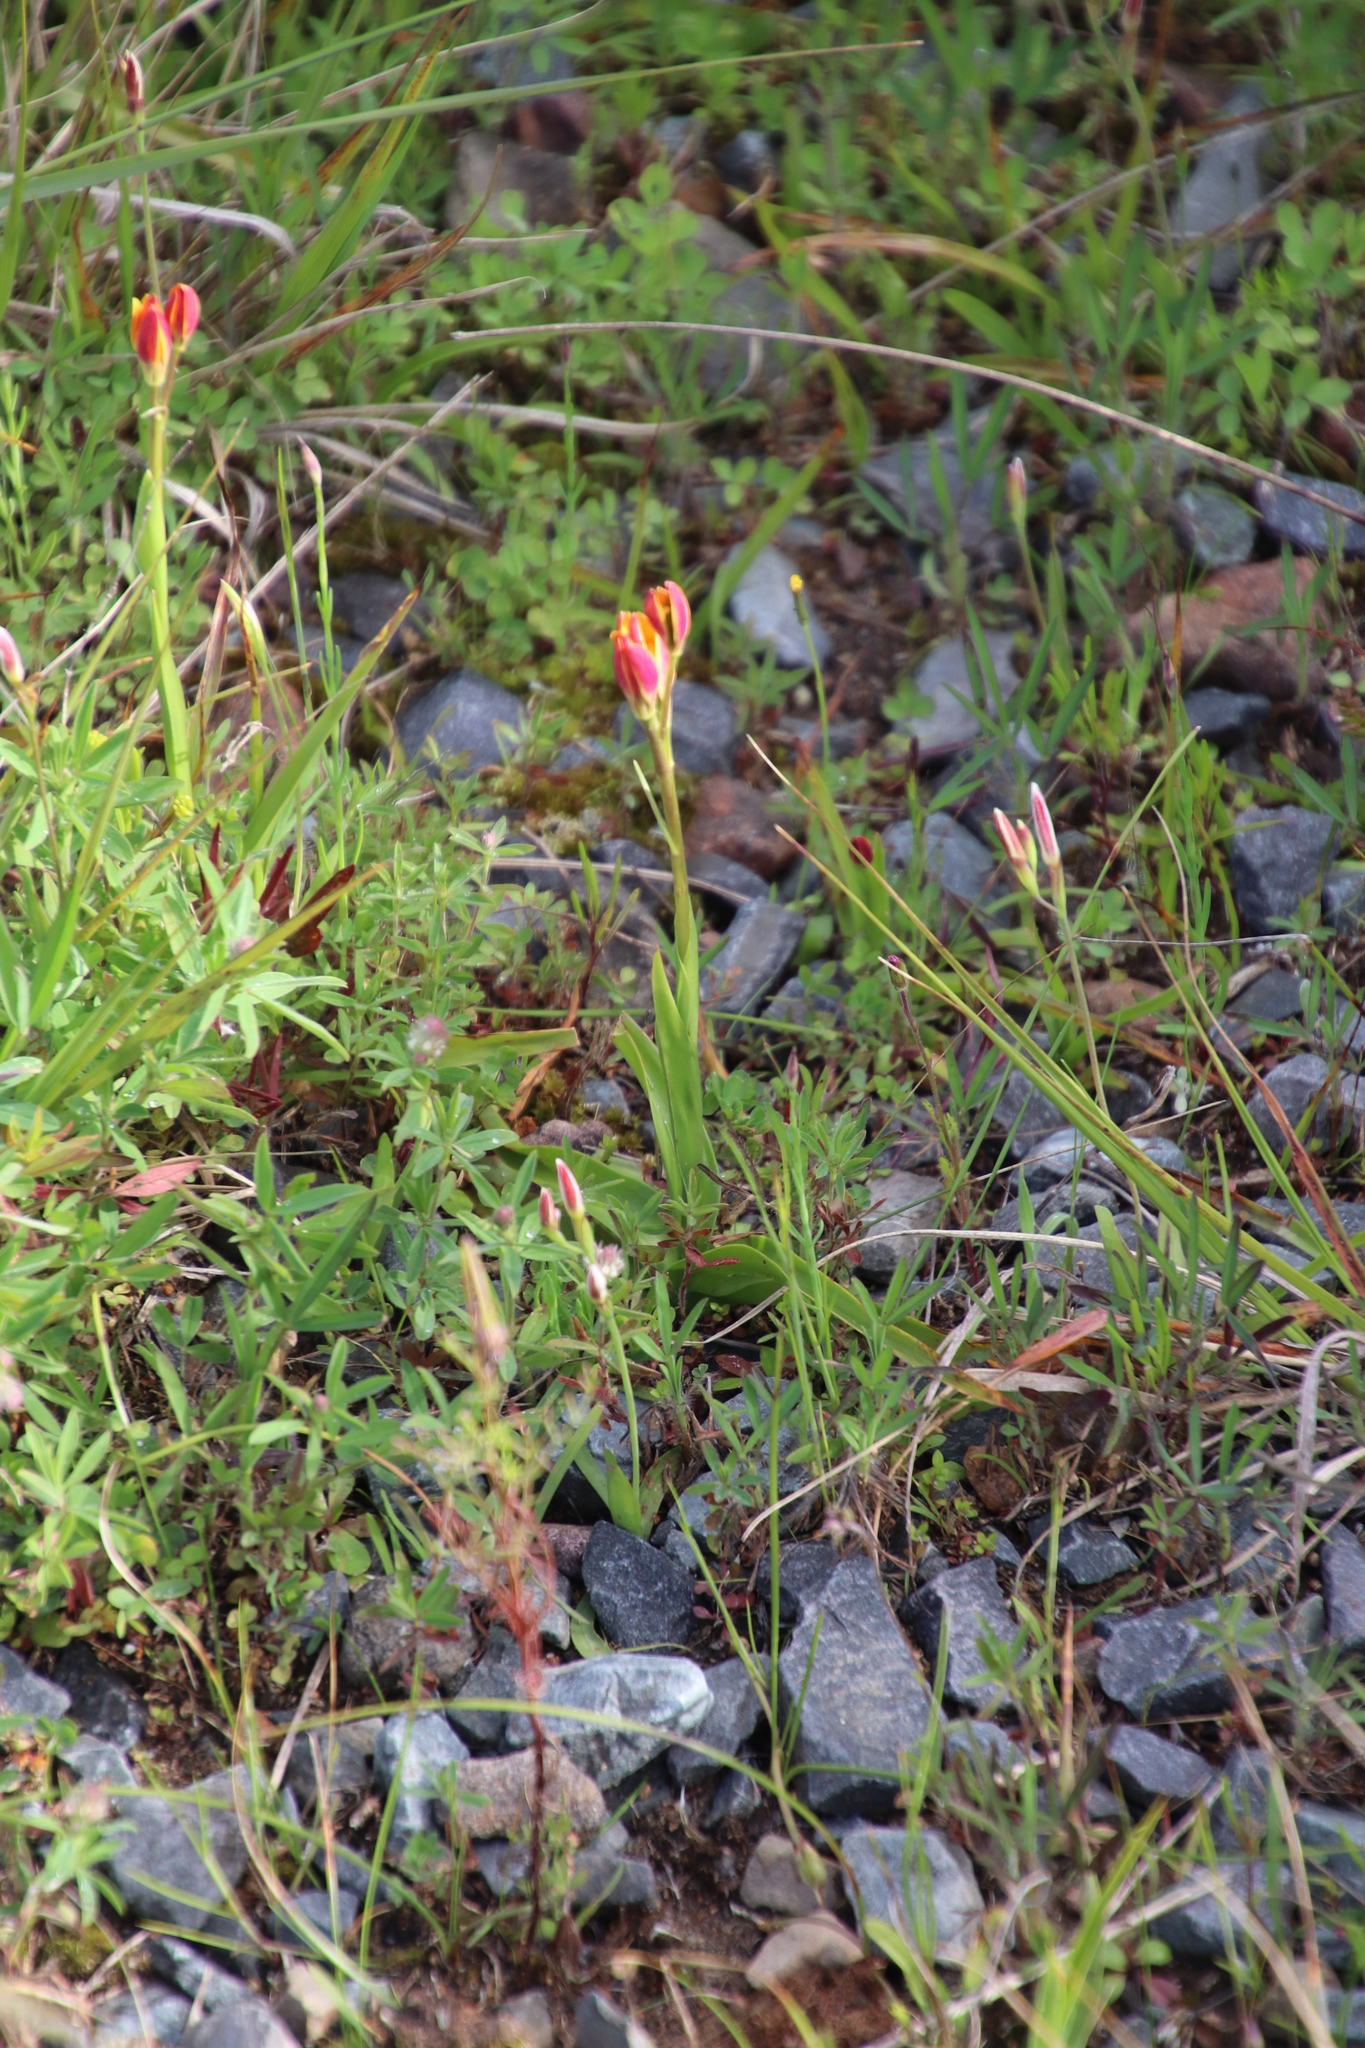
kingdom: Plantae
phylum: Tracheophyta
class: Liliopsida
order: Liliales
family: Colchicaceae
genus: Baeometra
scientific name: Baeometra uniflora
